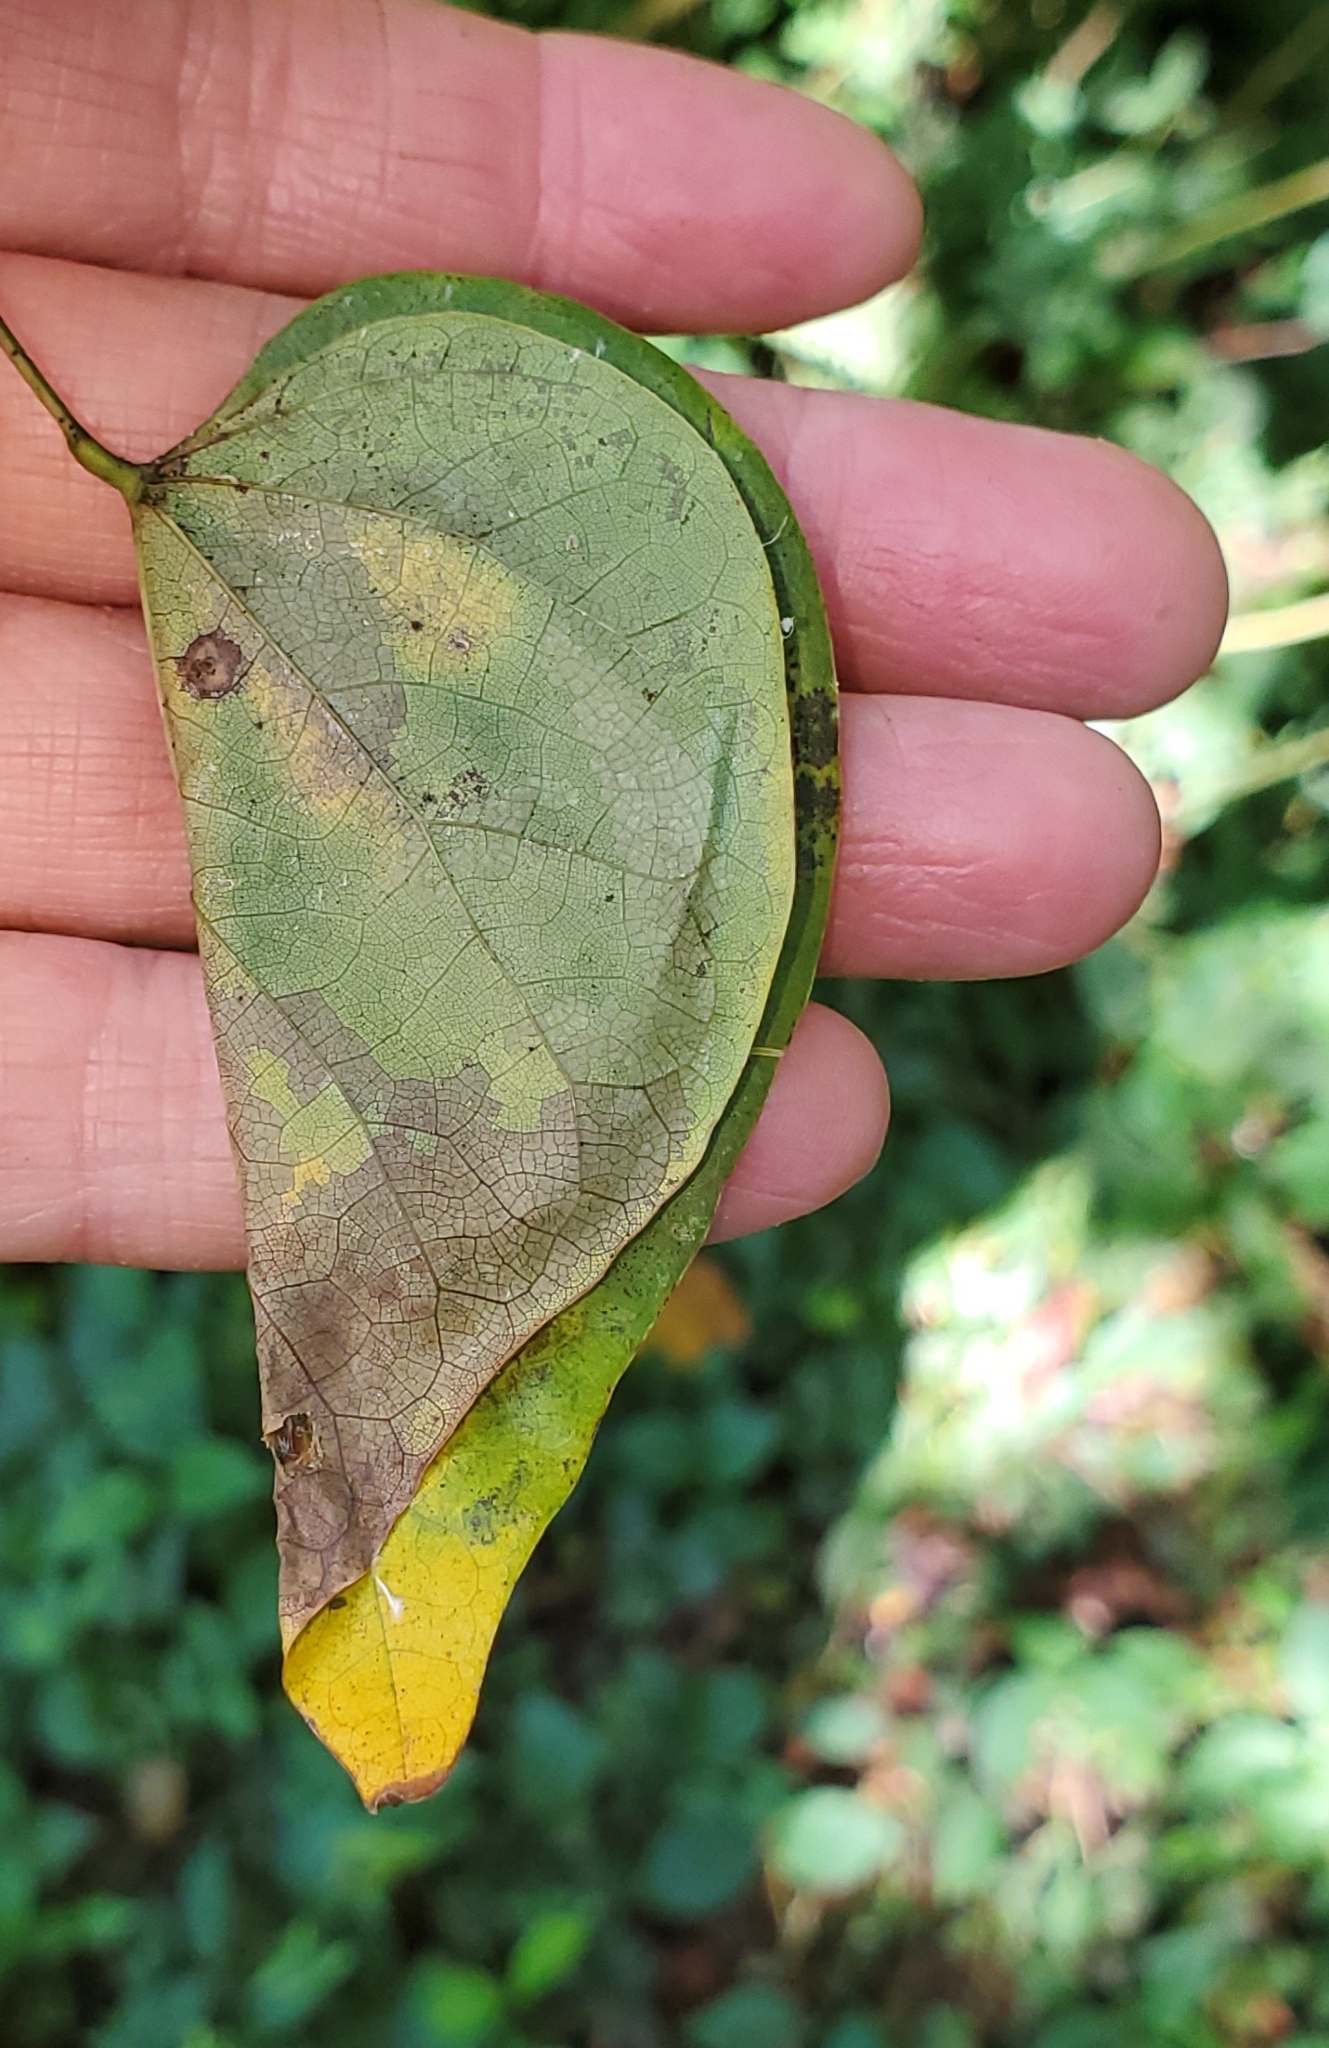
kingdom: Animalia
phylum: Arthropoda
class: Insecta
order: Lepidoptera
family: Gelechiidae
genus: Fascista
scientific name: Fascista cercerisella
